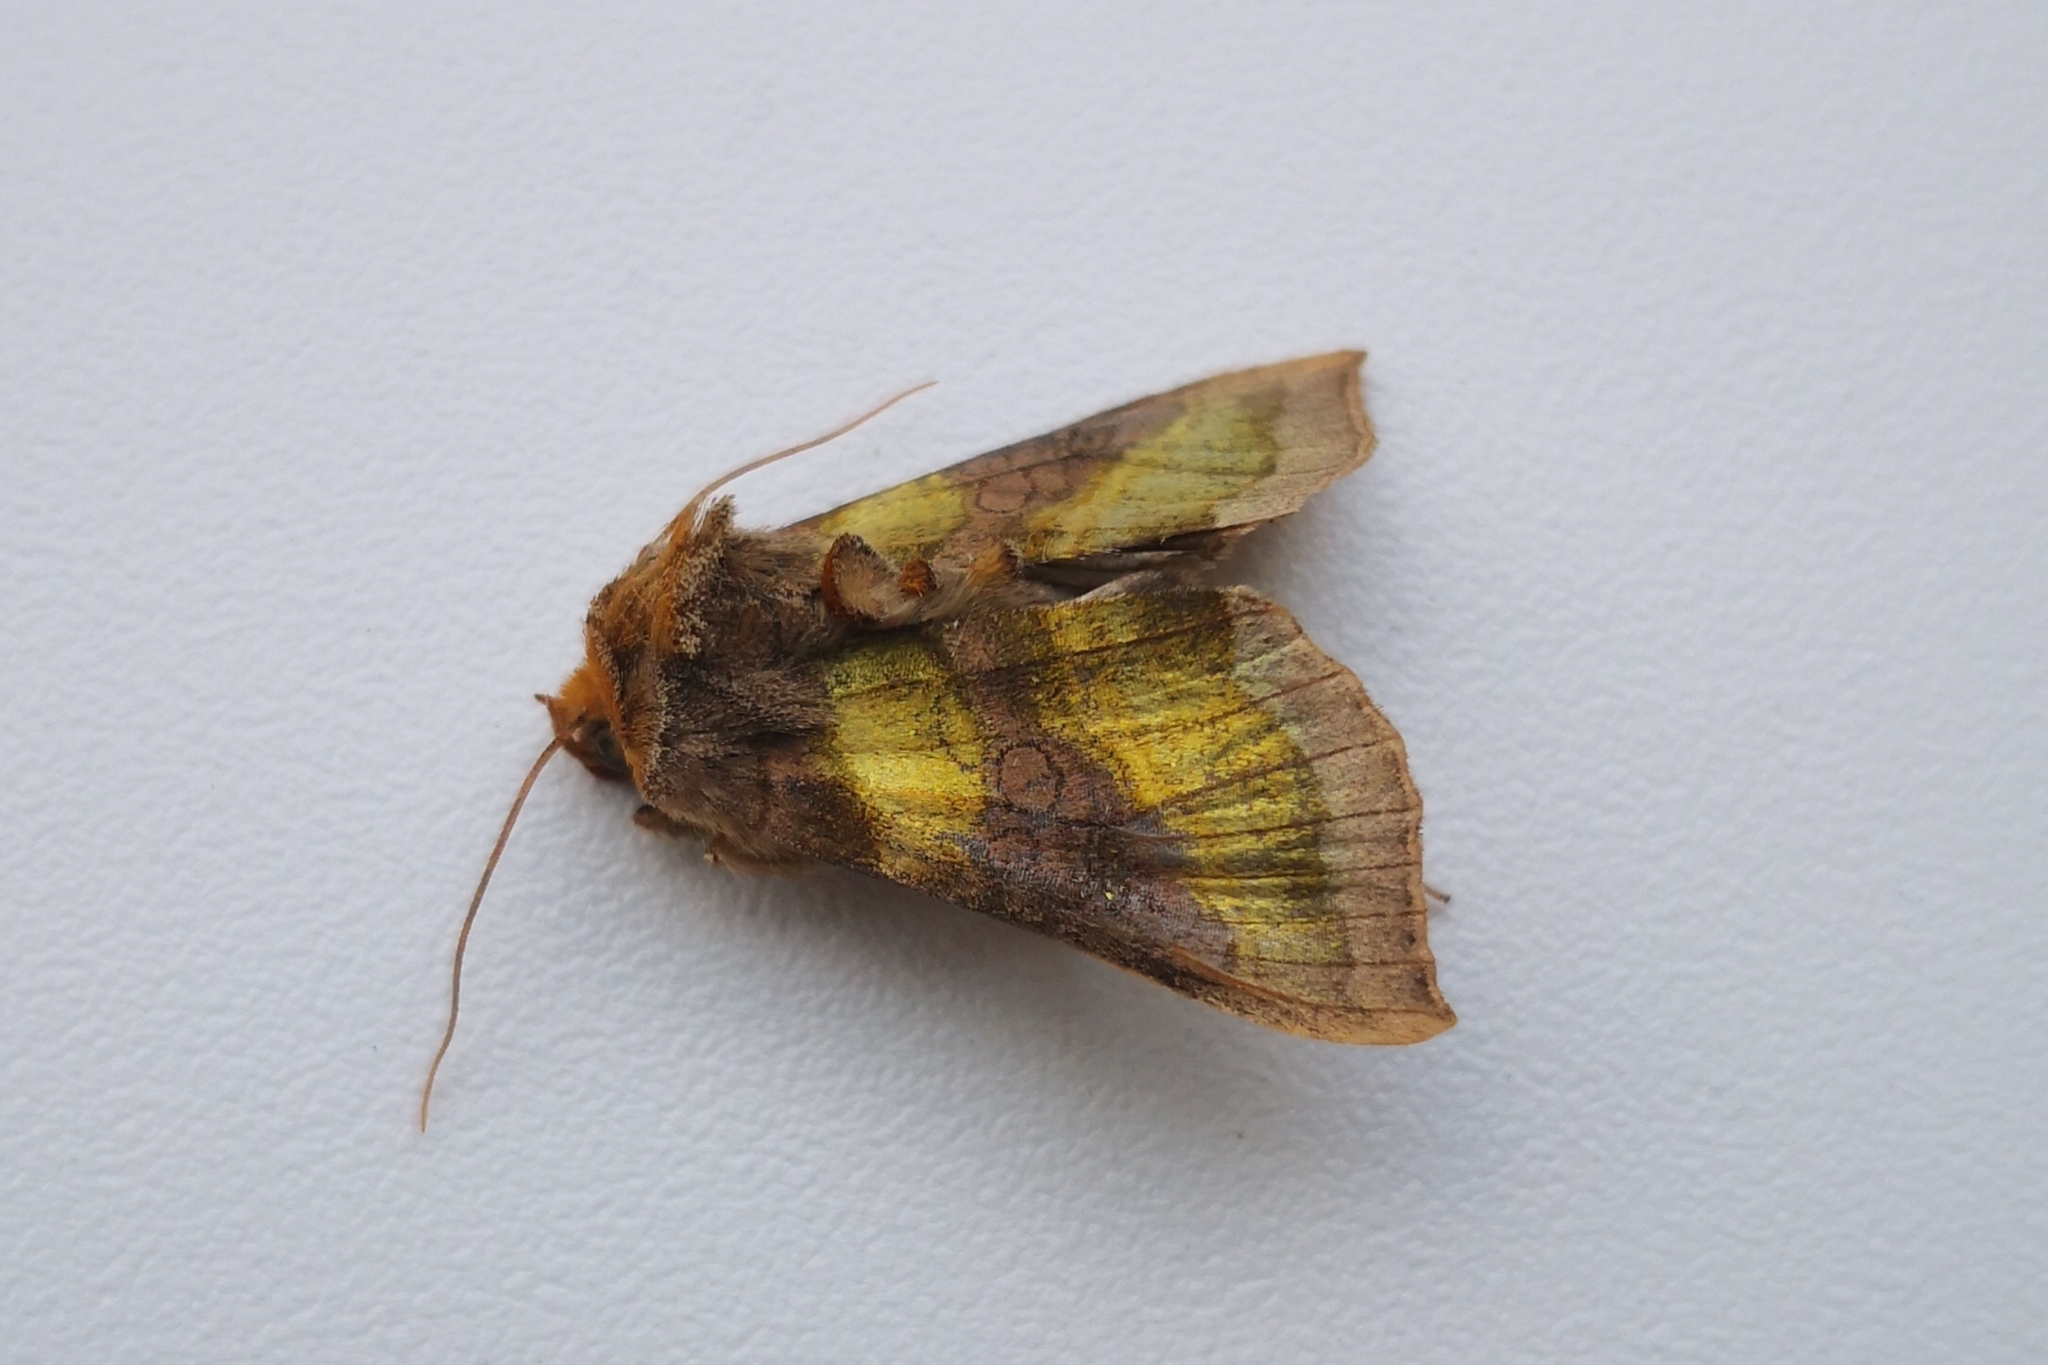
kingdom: Animalia
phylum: Arthropoda
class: Insecta
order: Lepidoptera
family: Noctuidae
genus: Diachrysia
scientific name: Diachrysia chrysitis
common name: Burnished brass
